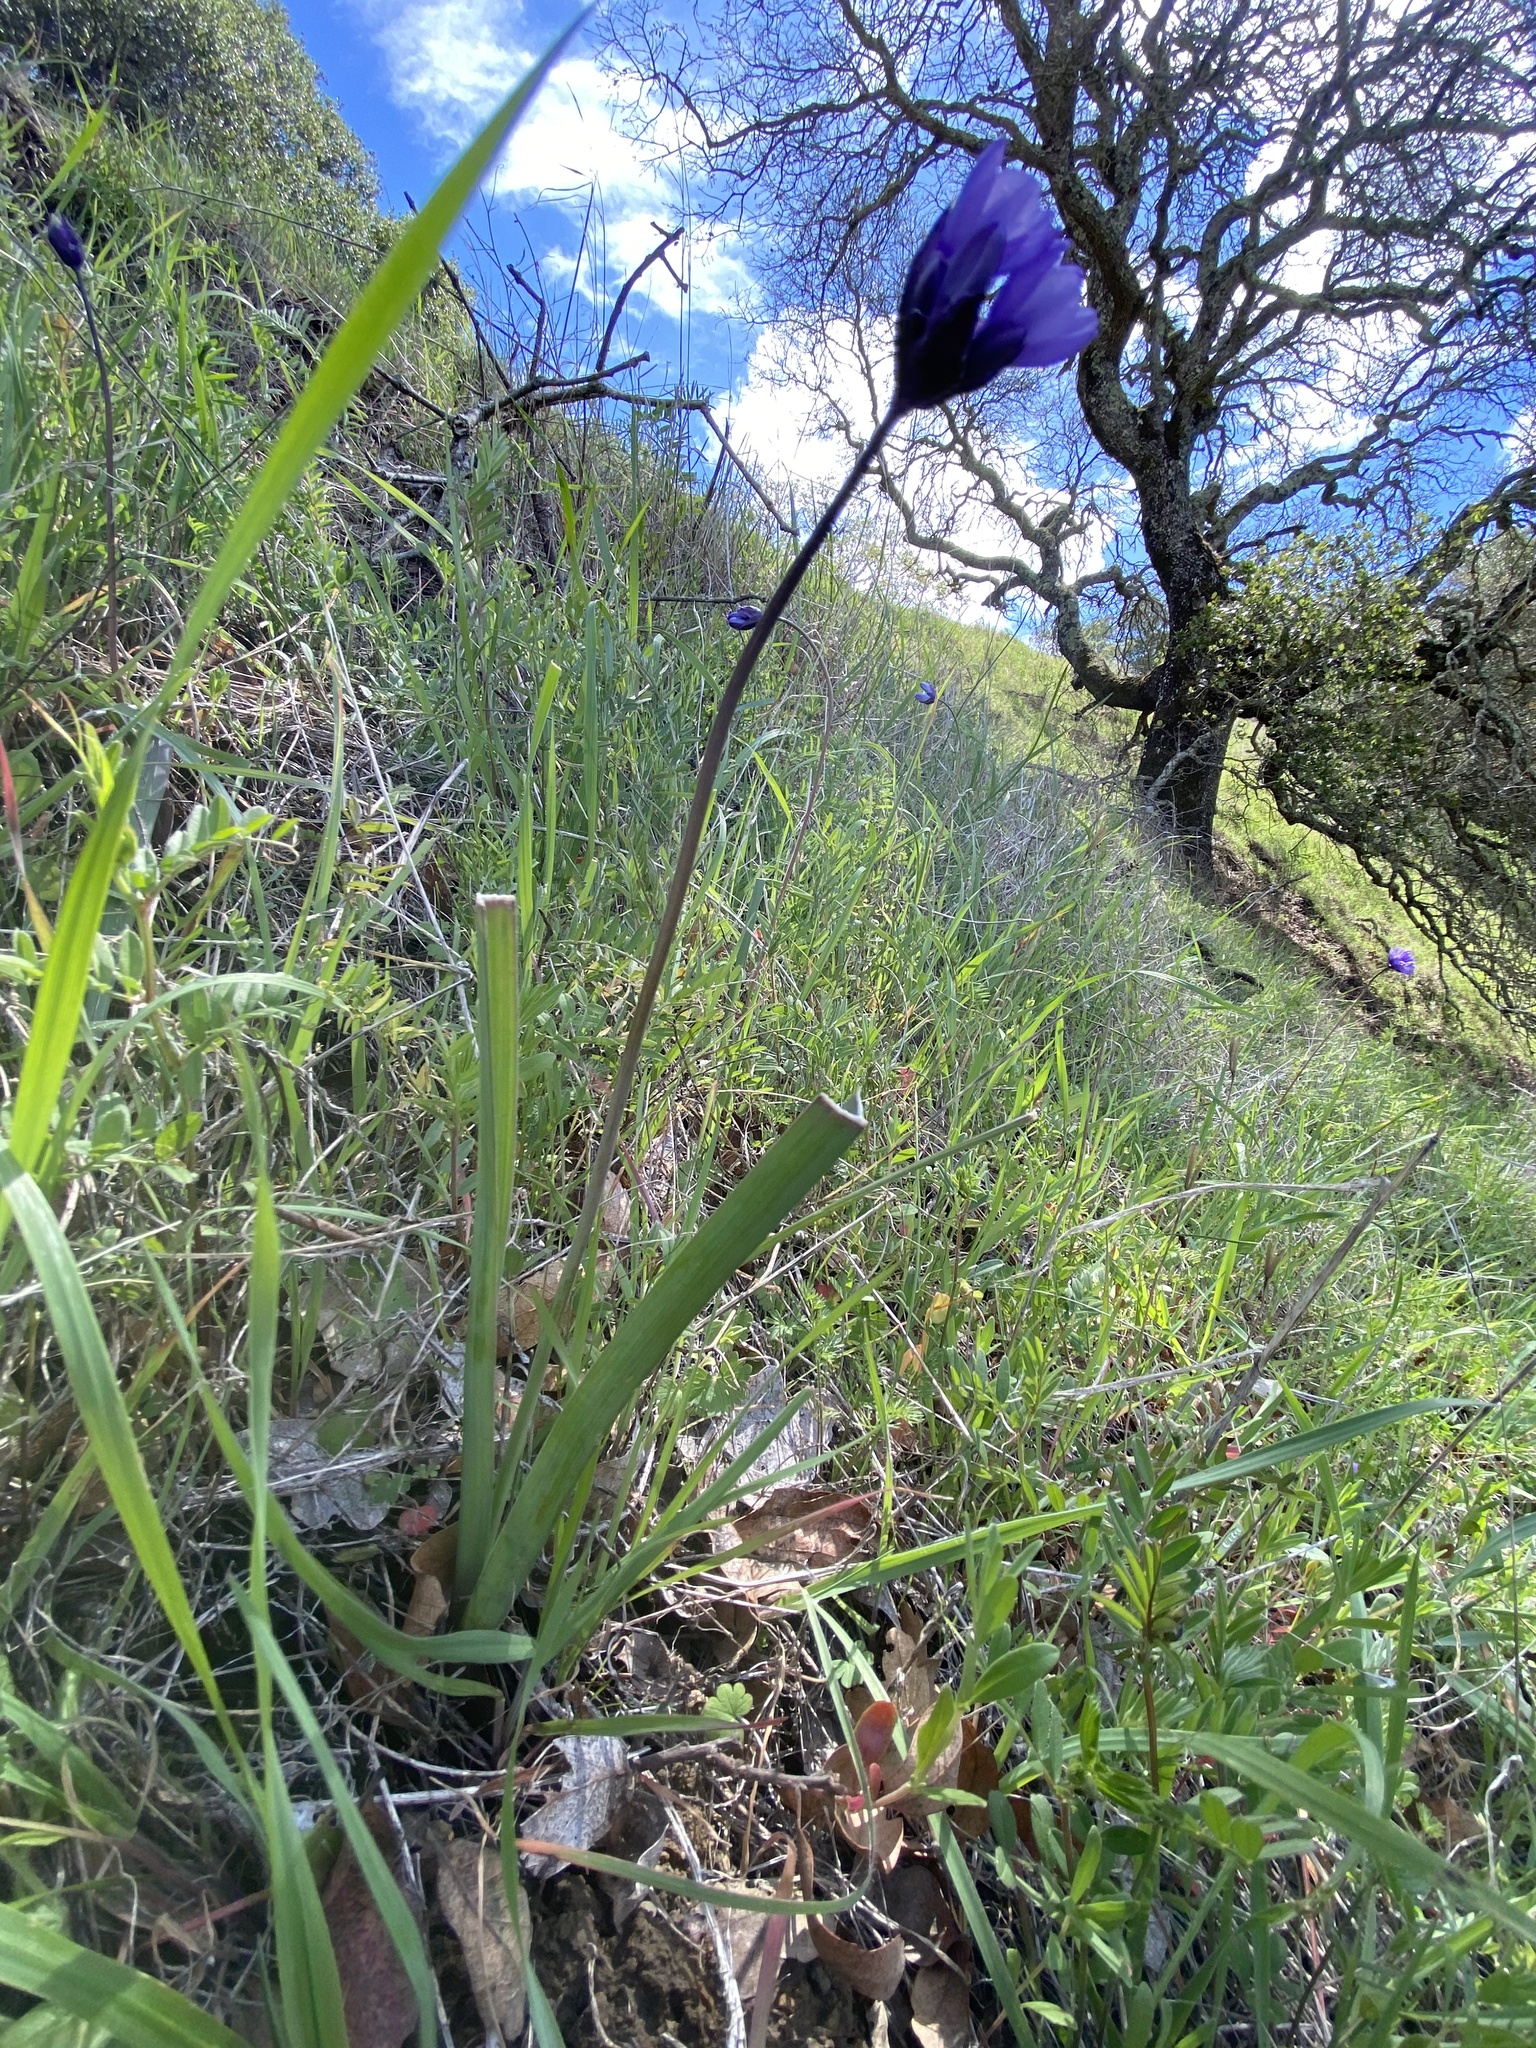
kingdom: Plantae
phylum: Tracheophyta
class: Liliopsida
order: Asparagales
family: Asparagaceae
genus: Dipterostemon
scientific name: Dipterostemon capitatus
